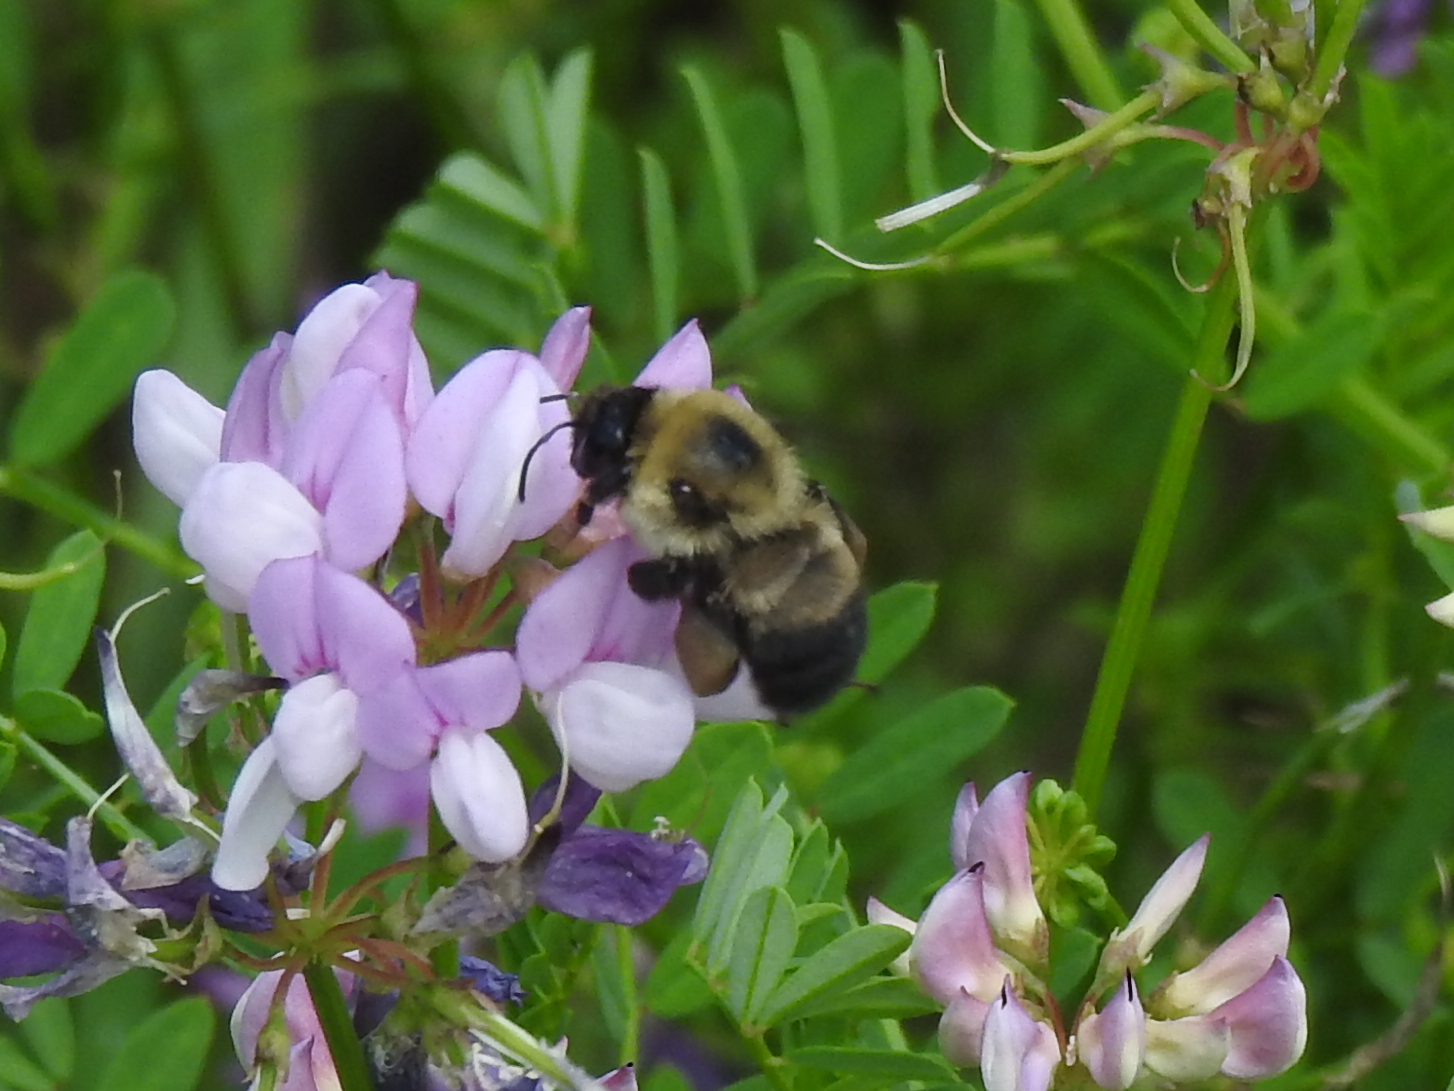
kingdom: Animalia
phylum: Arthropoda
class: Insecta
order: Hymenoptera
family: Apidae
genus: Bombus
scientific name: Bombus griseocollis
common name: Brown-belted bumble bee
